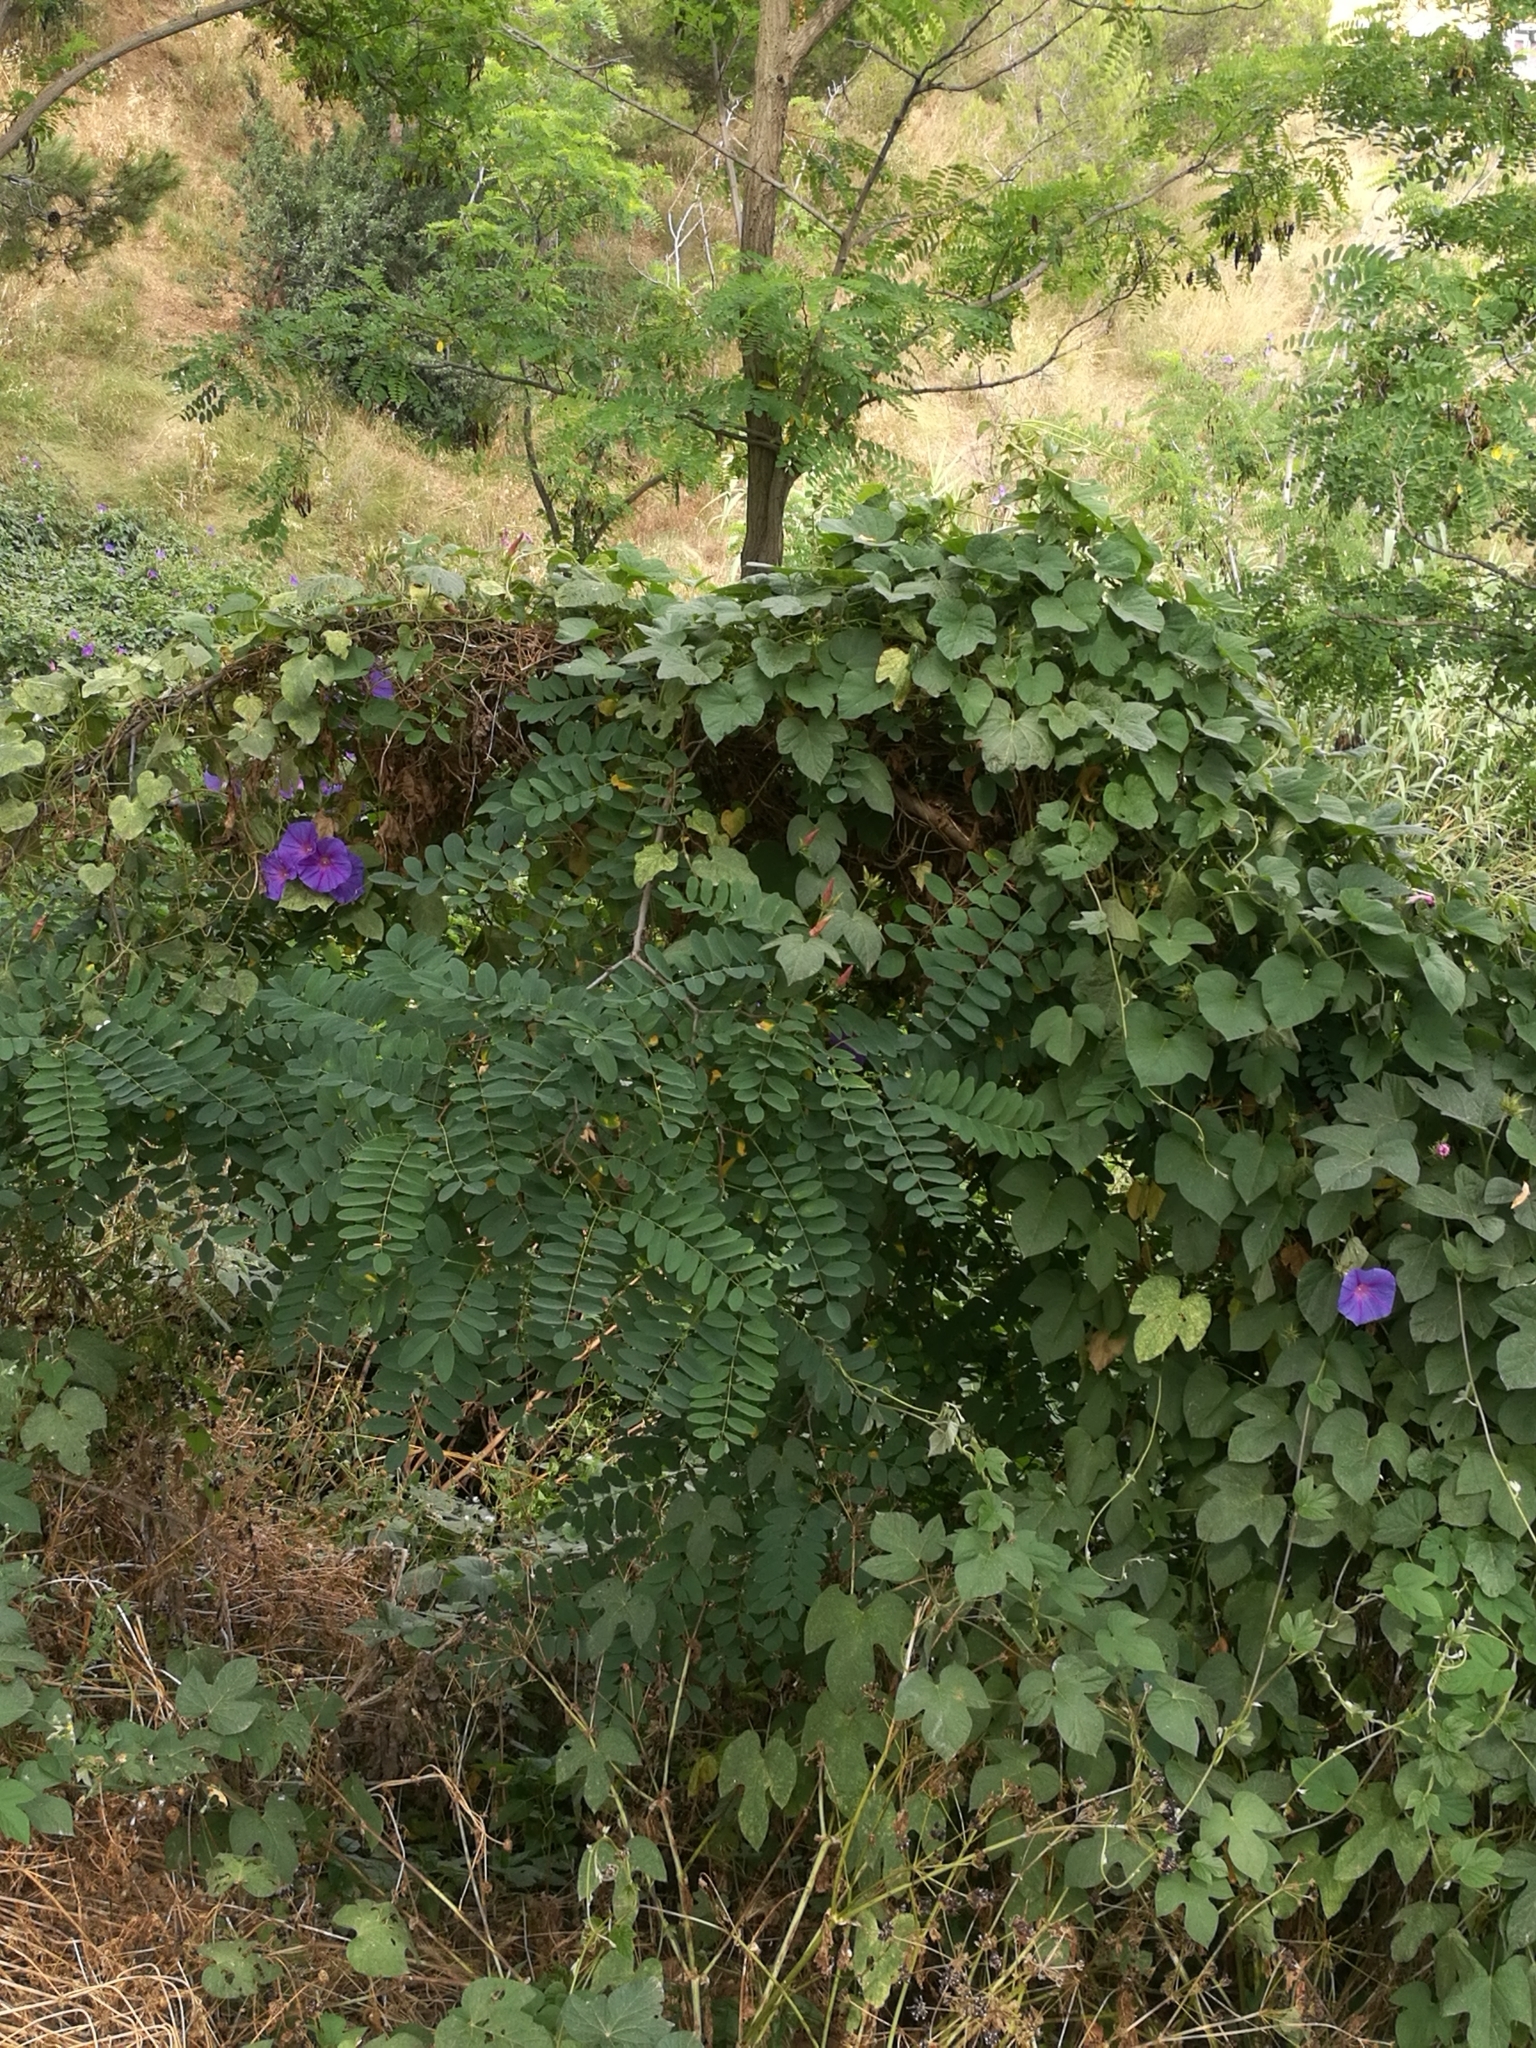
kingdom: Plantae
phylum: Tracheophyta
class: Magnoliopsida
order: Solanales
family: Convolvulaceae
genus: Ipomoea
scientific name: Ipomoea indica
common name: Blue dawnflower
